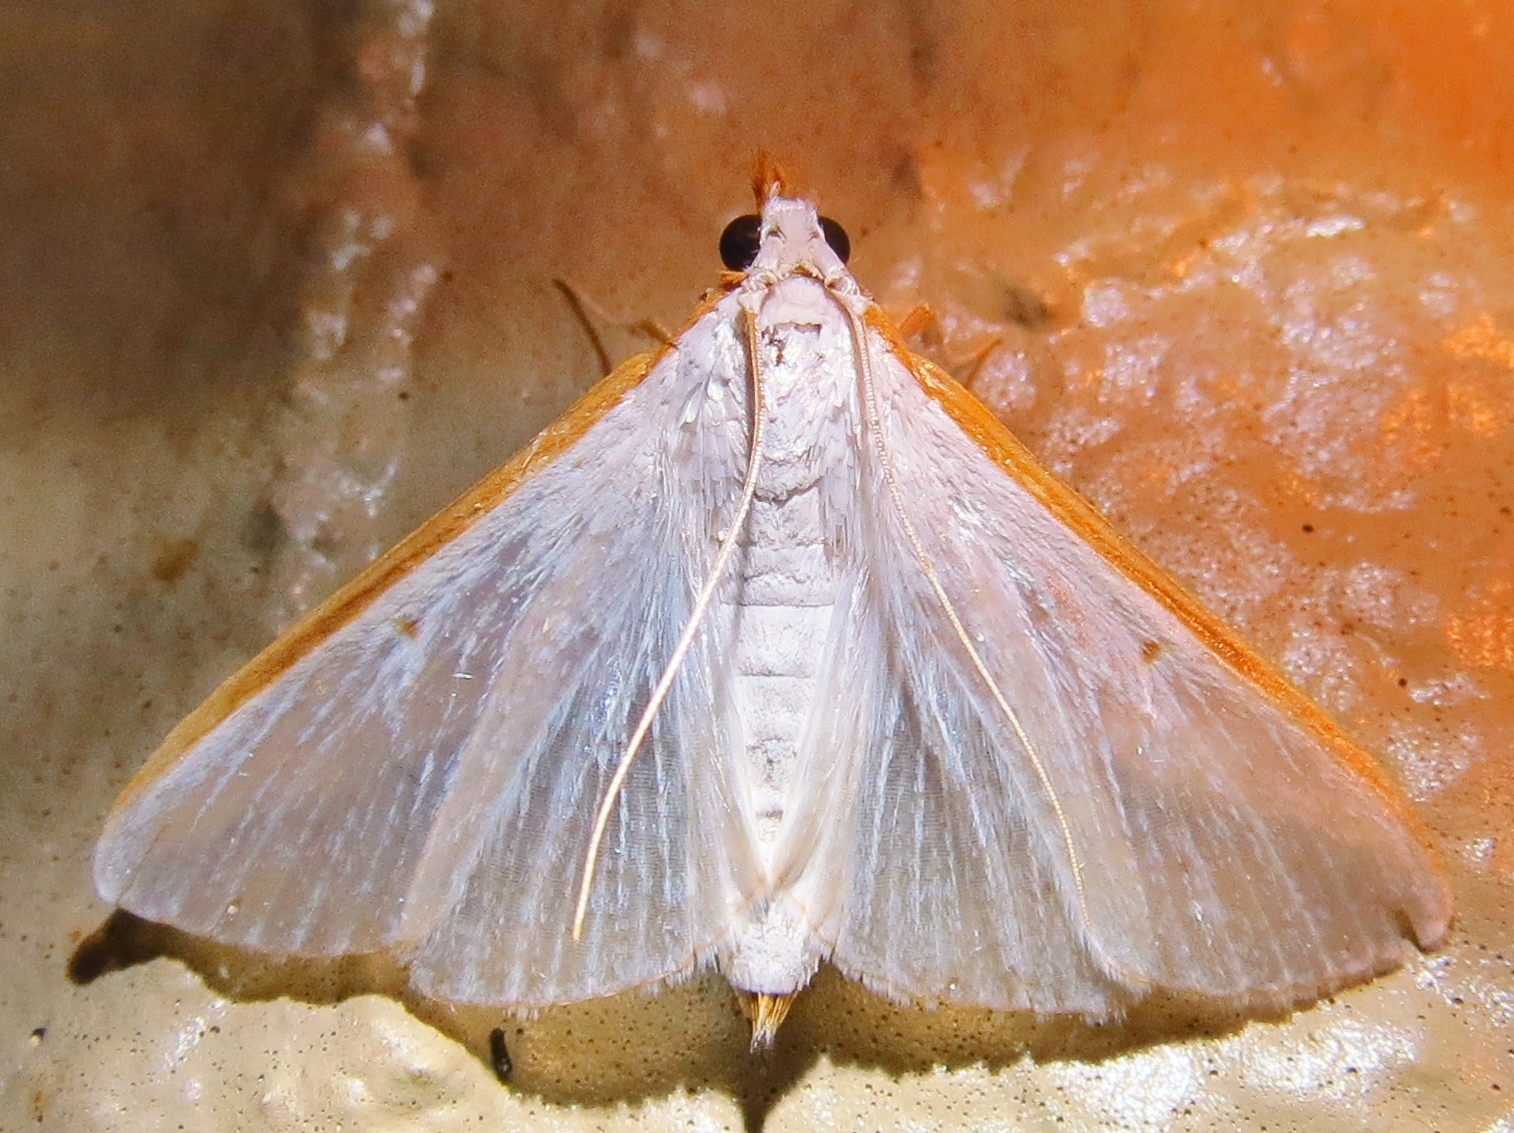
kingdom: Animalia
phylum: Arthropoda
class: Insecta
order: Lepidoptera
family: Crambidae
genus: Diaphania
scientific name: Diaphania costata
